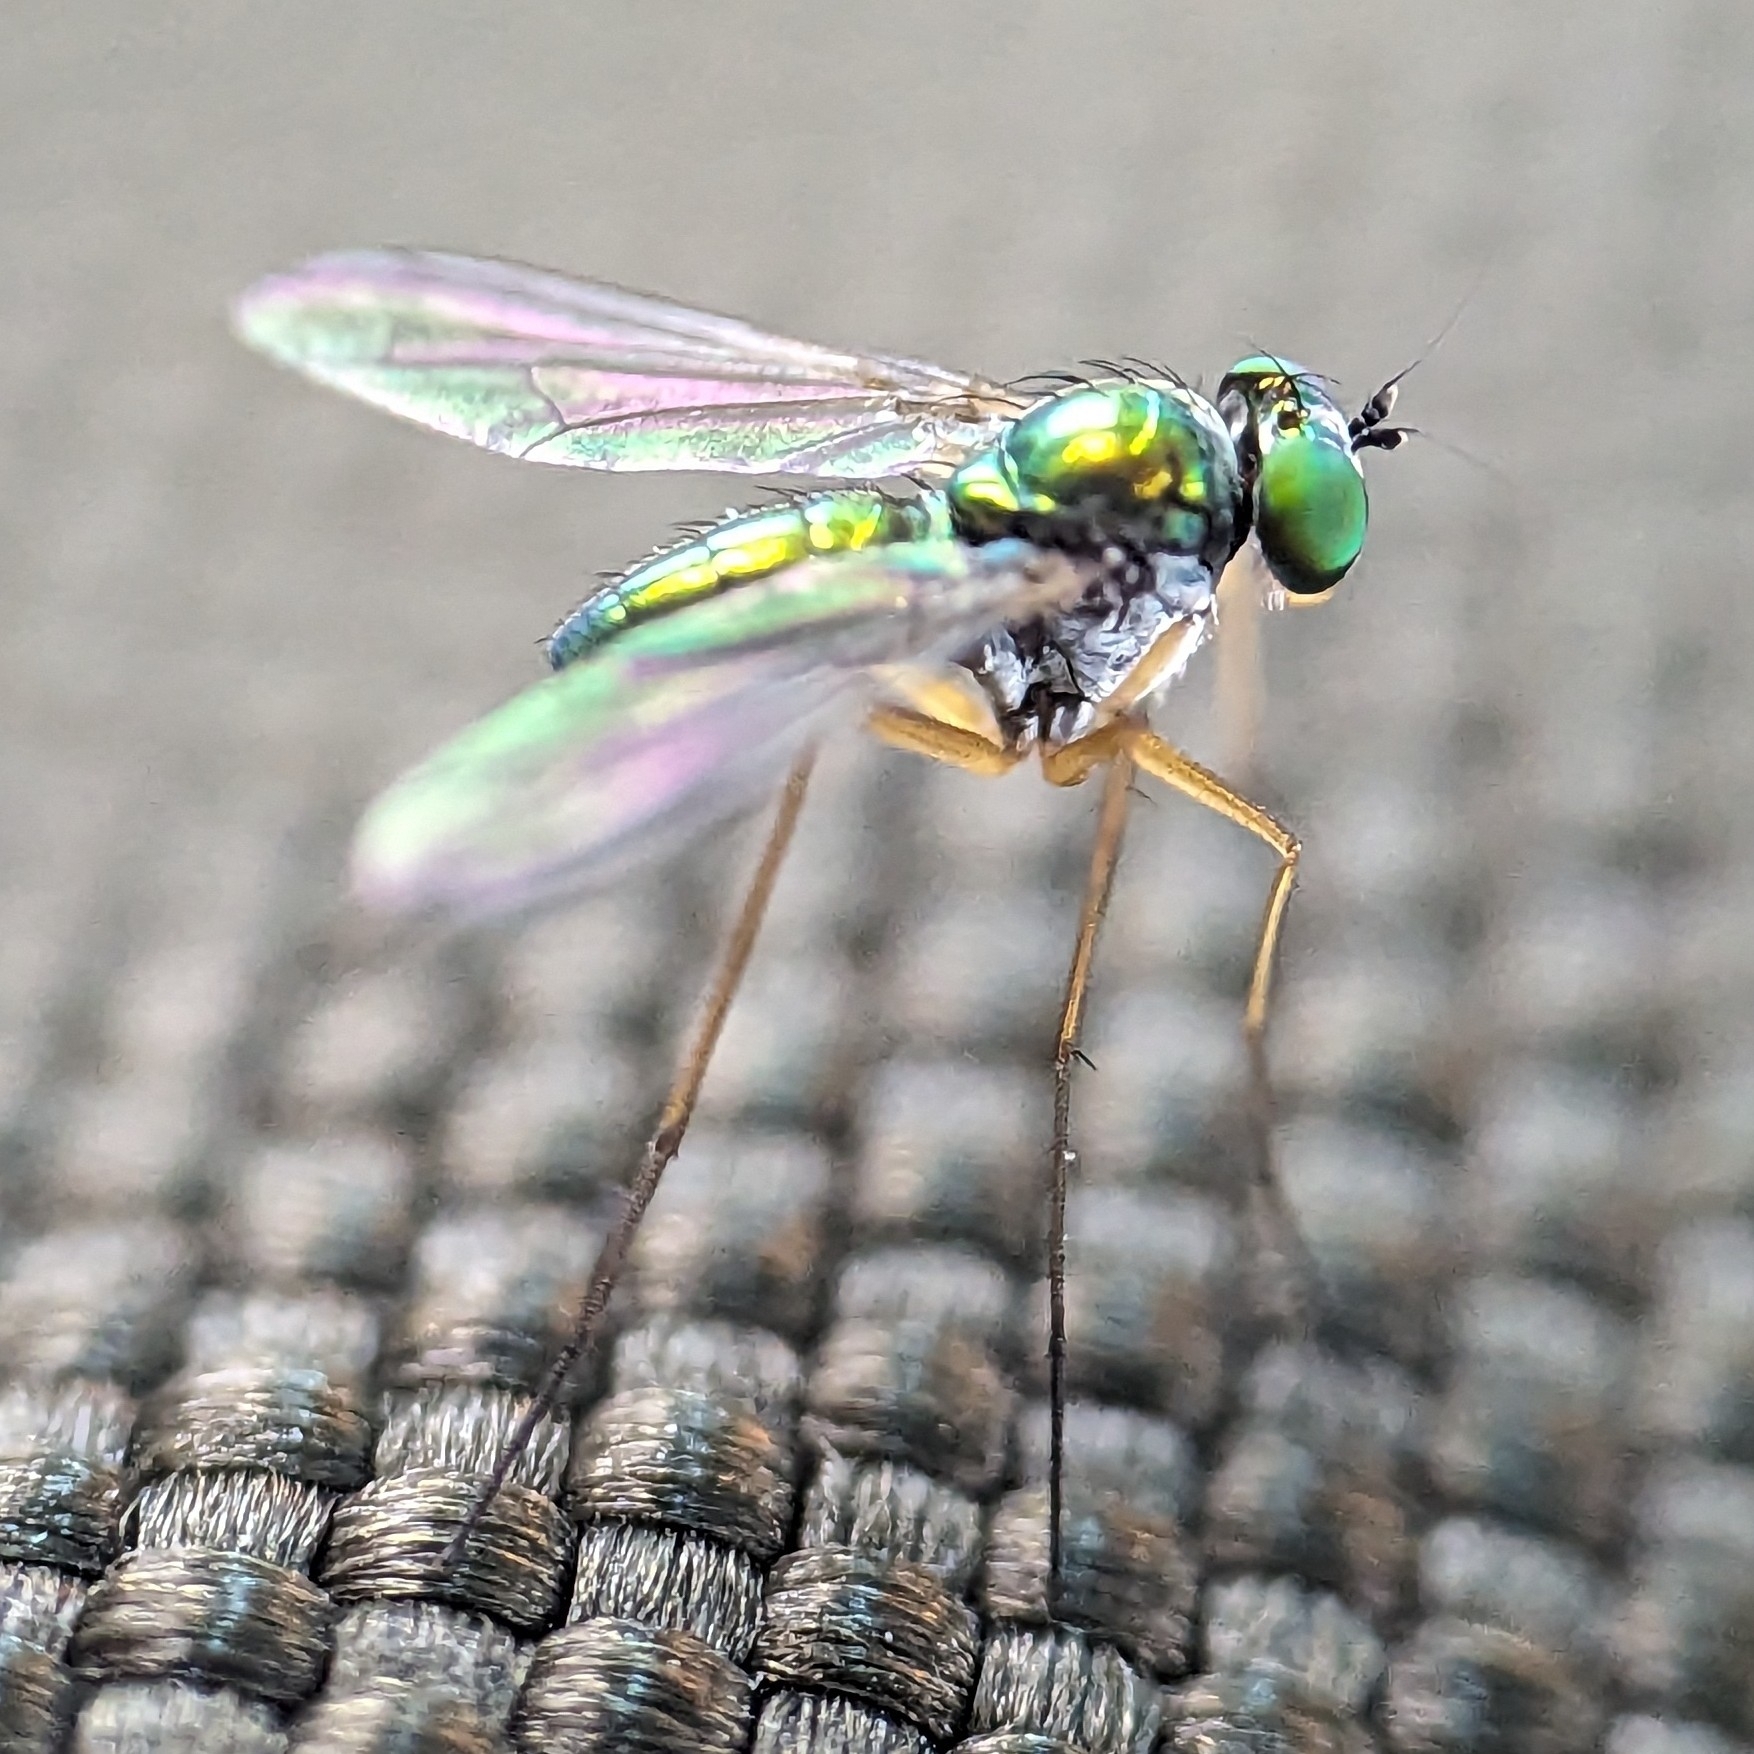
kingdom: Animalia
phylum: Arthropoda
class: Insecta
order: Diptera
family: Dolichopodidae
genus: Amblypsilopus
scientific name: Amblypsilopus scintillans
